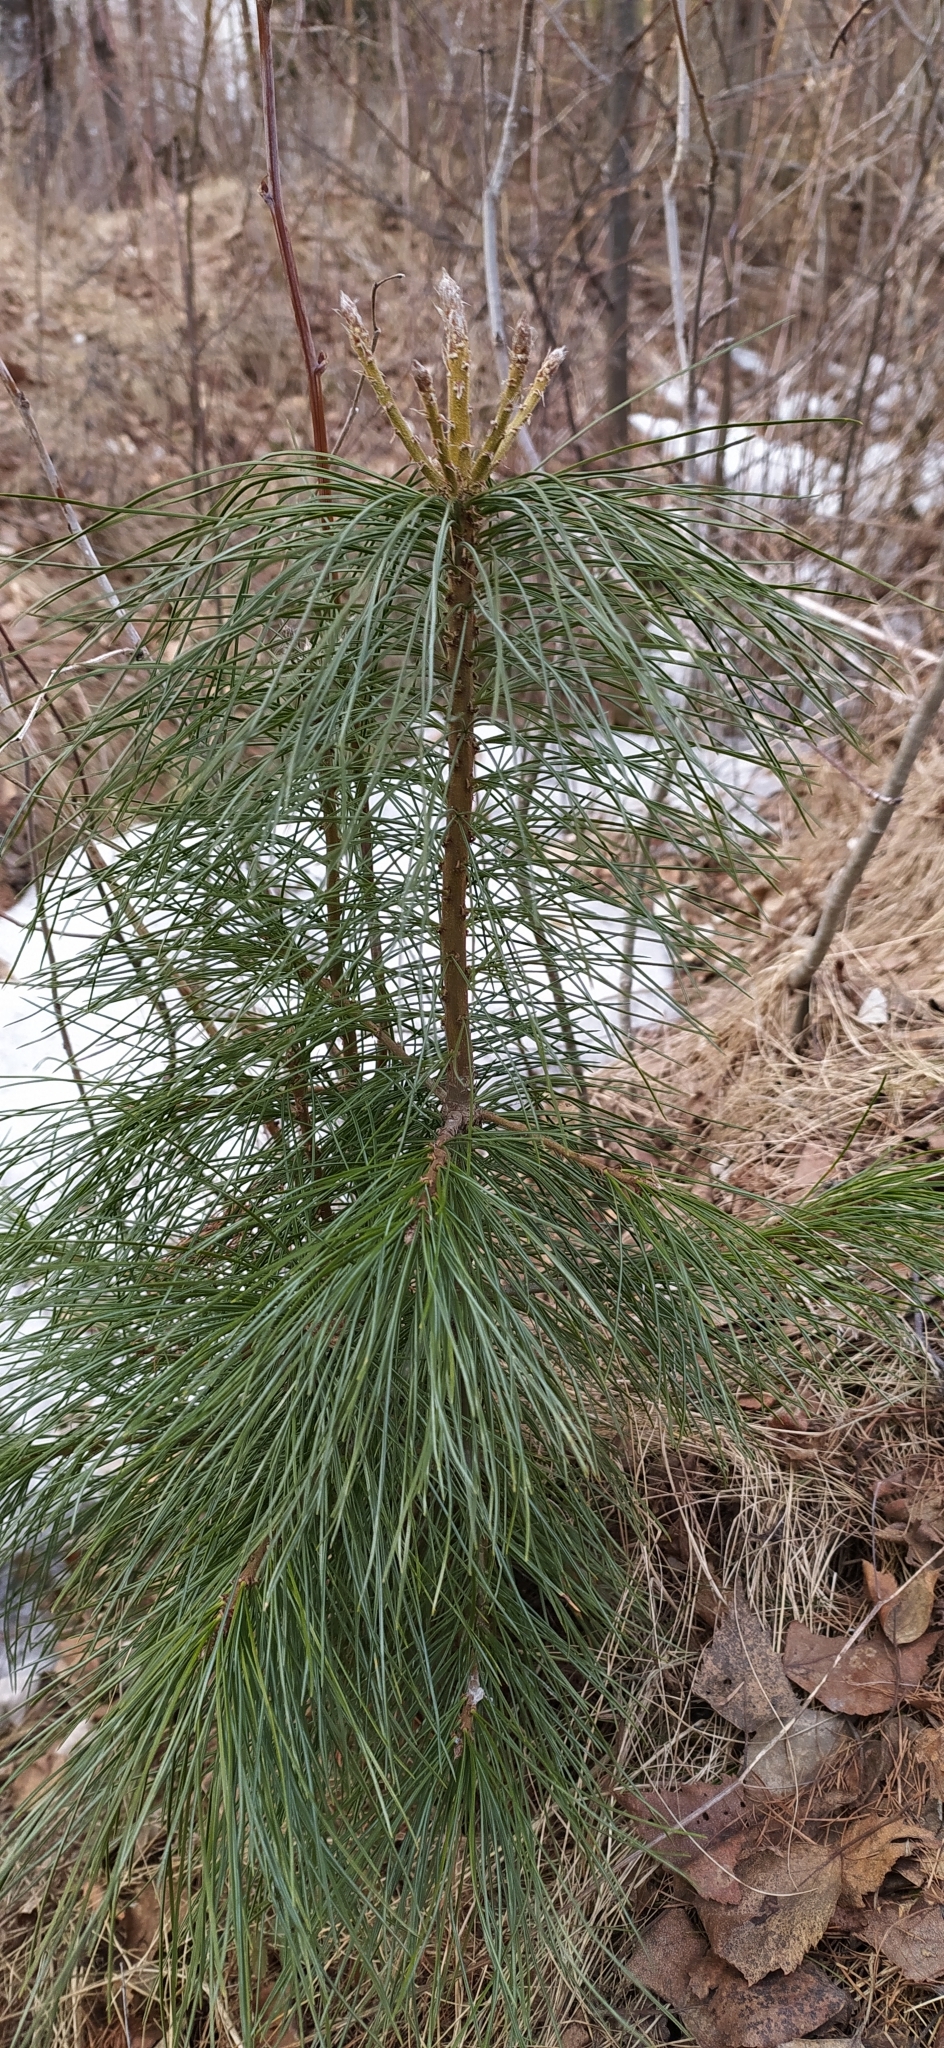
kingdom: Plantae
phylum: Tracheophyta
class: Pinopsida
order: Pinales
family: Pinaceae
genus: Pinus
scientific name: Pinus sibirica
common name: Siberian pine
